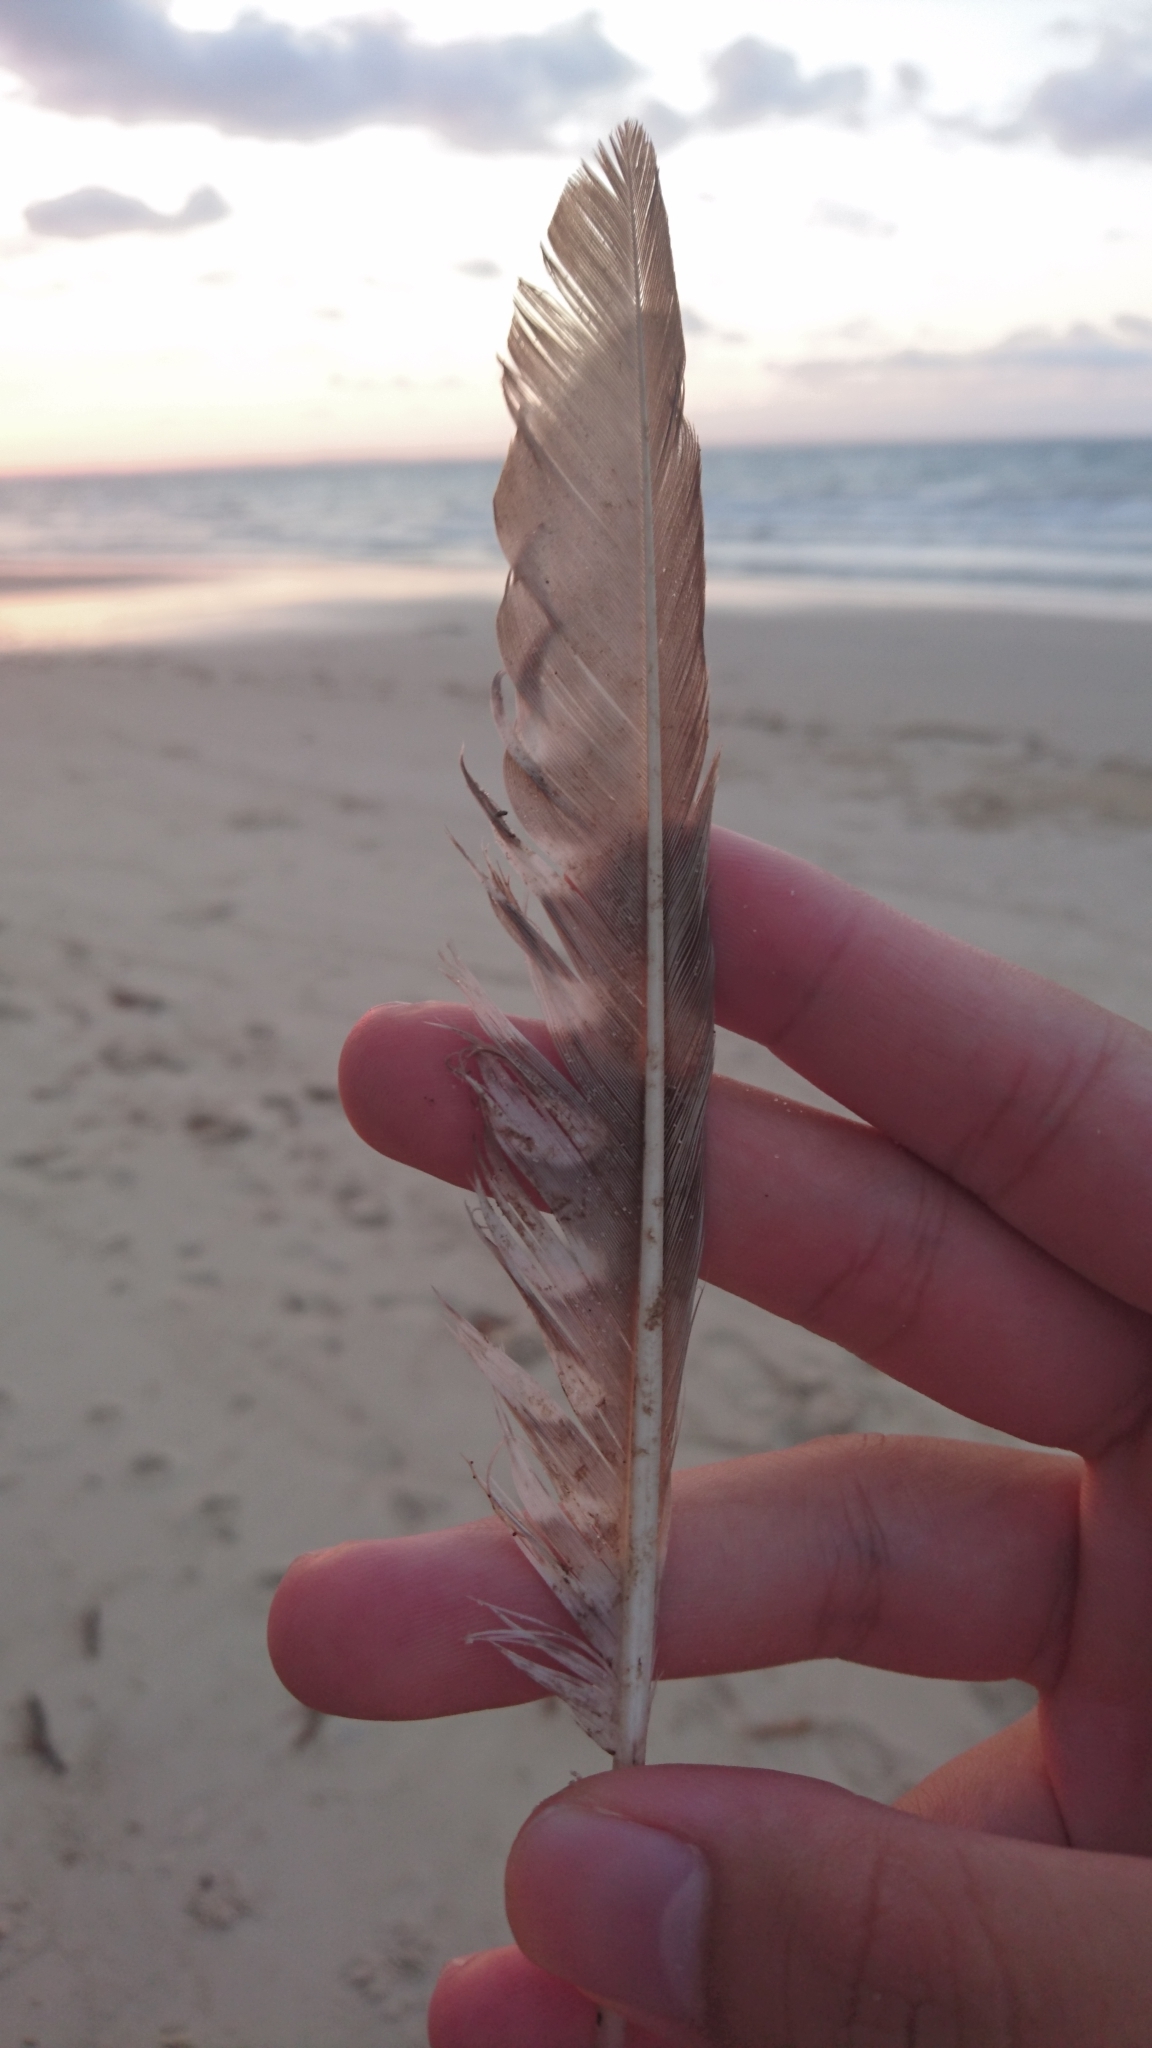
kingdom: Animalia
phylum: Chordata
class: Aves
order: Charadriiformes
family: Scolopacidae
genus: Numenius
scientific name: Numenius phaeopus
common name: Whimbrel
